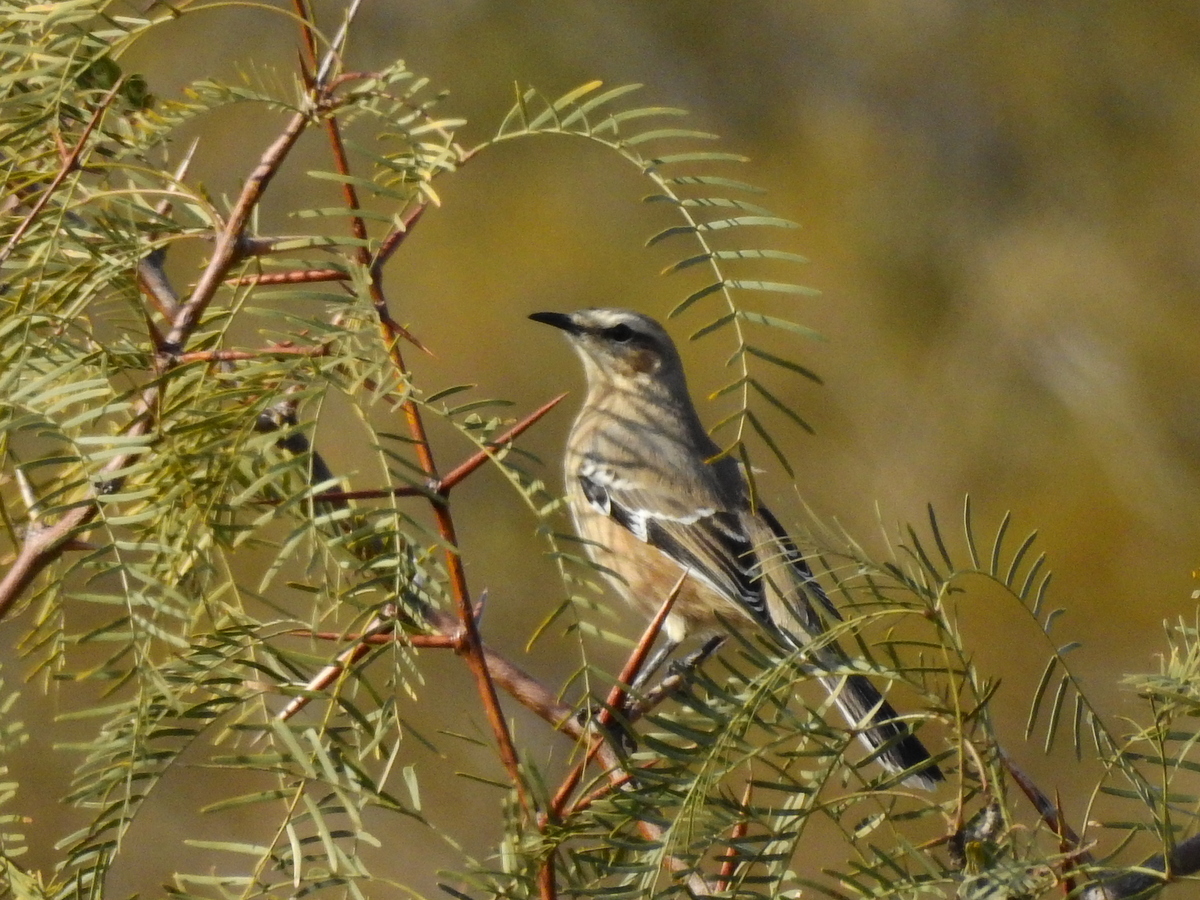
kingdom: Animalia
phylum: Chordata
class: Aves
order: Passeriformes
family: Mimidae
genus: Mimus
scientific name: Mimus patagonicus
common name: Patagonian mockingbird
